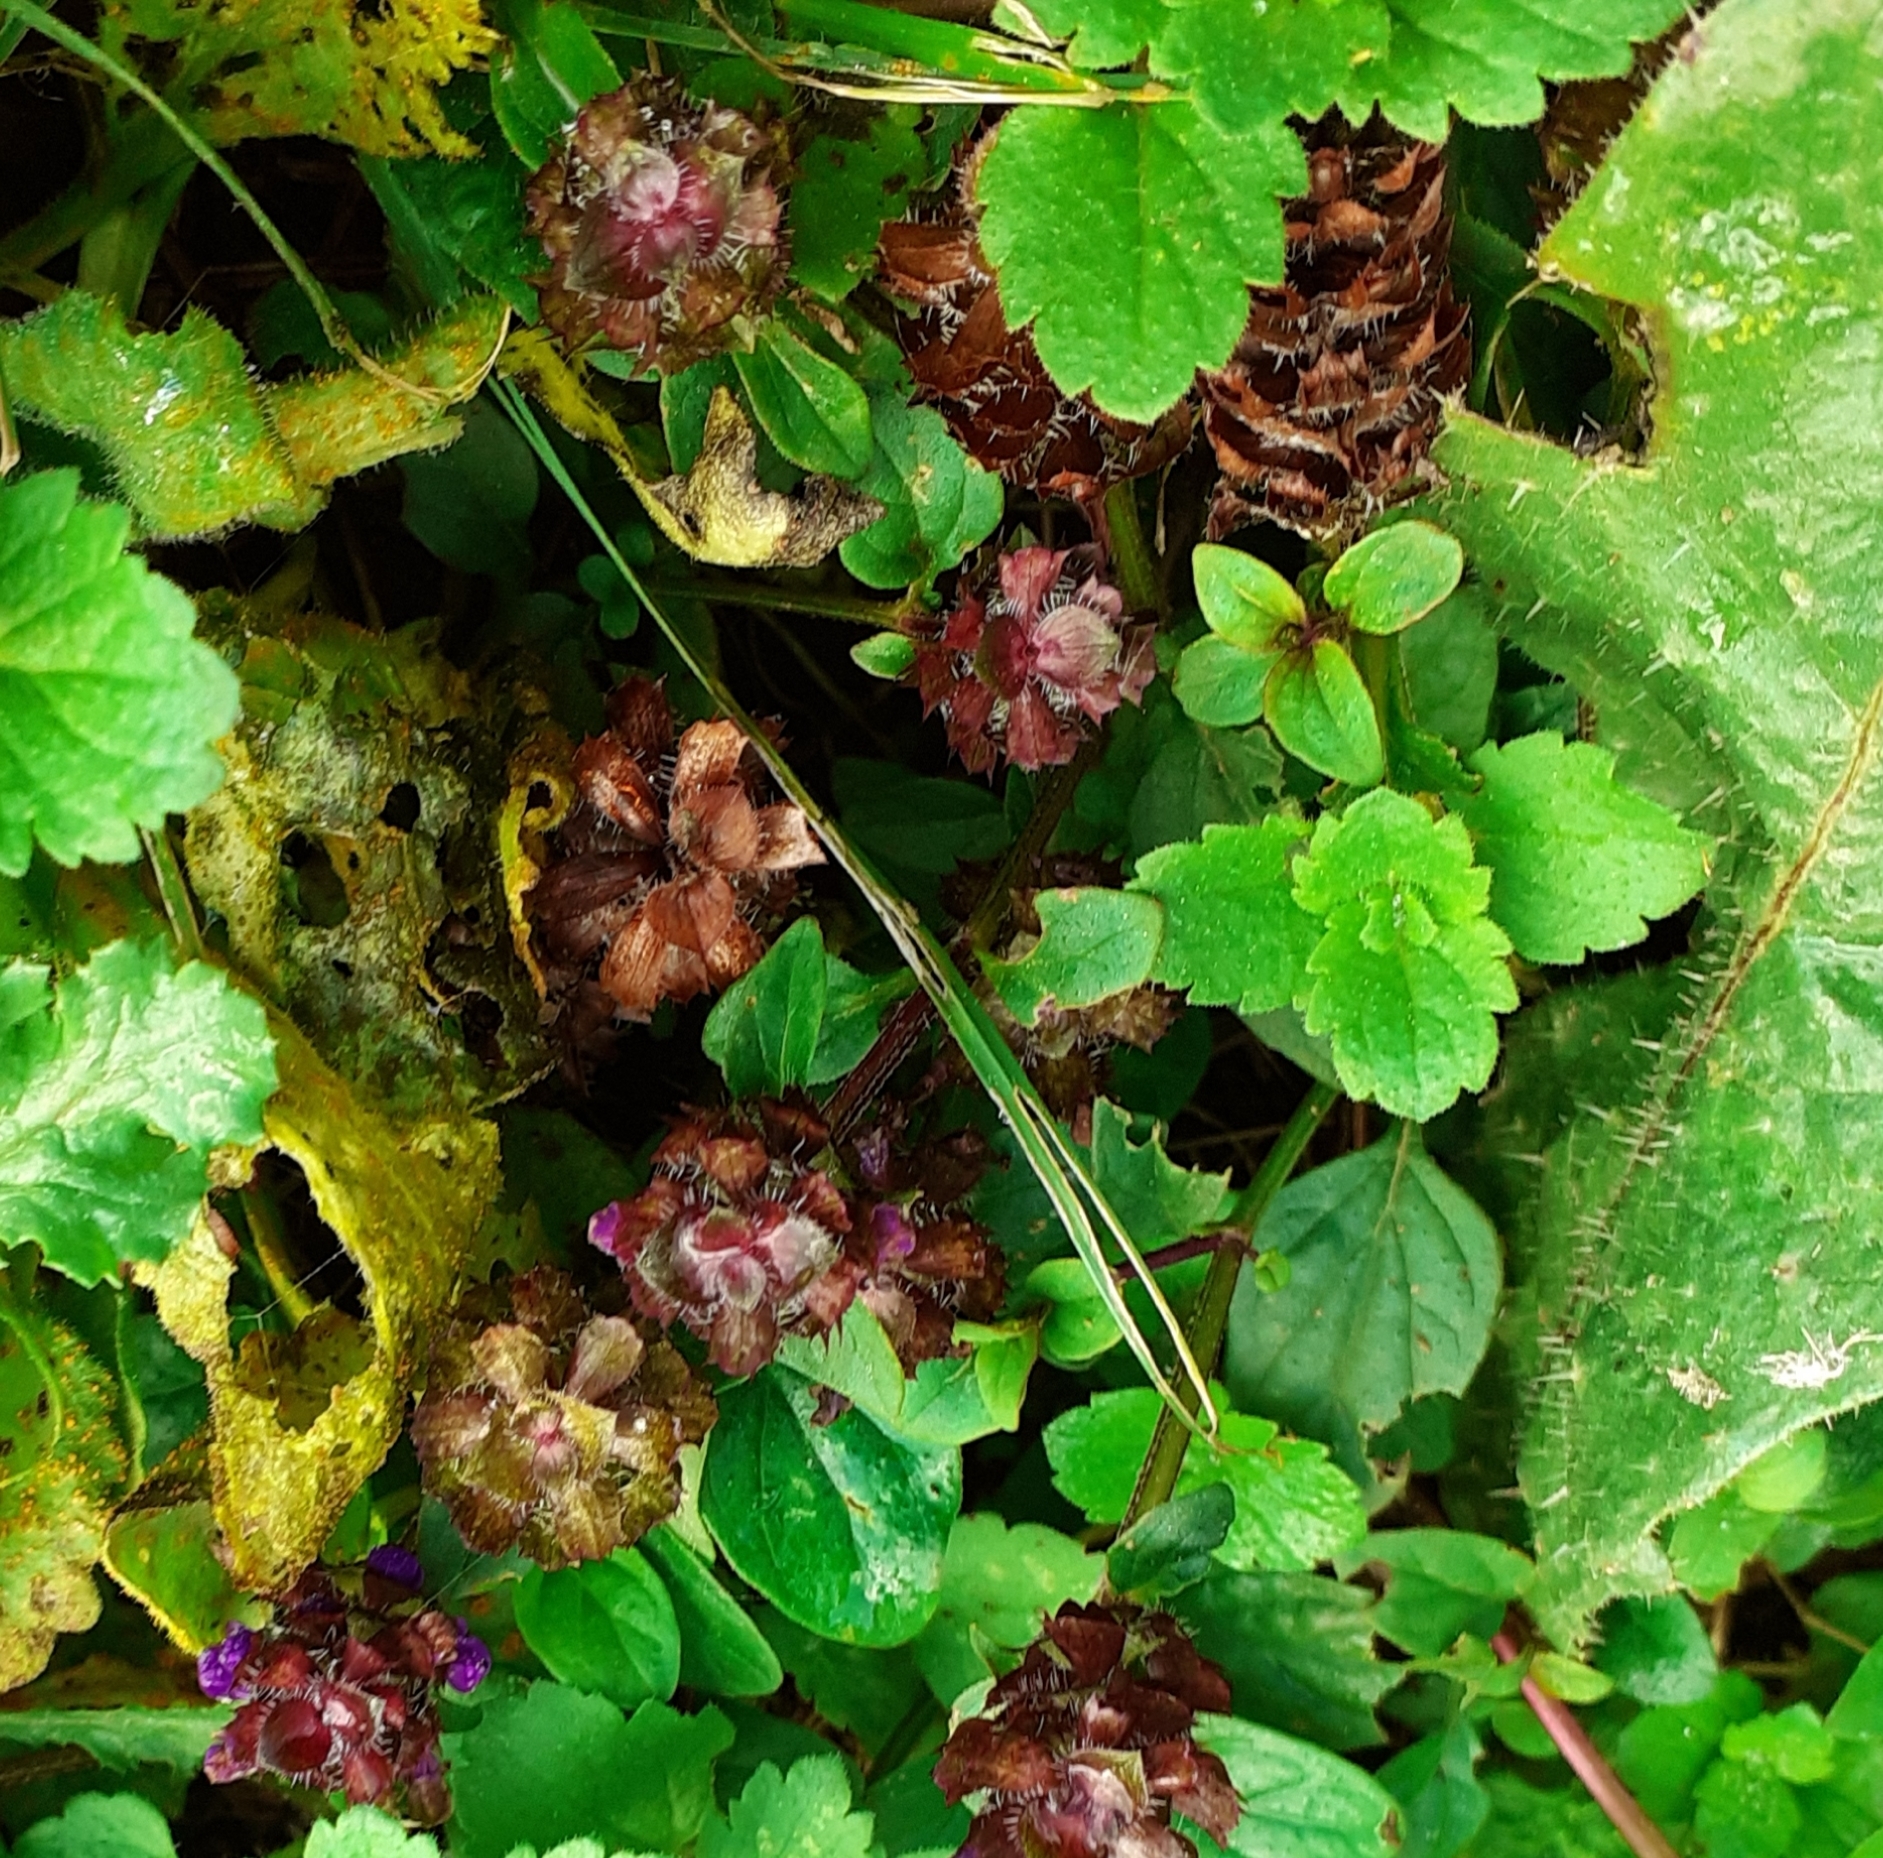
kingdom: Plantae
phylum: Tracheophyta
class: Magnoliopsida
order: Lamiales
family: Lamiaceae
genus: Prunella
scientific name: Prunella vulgaris
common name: Heal-all
